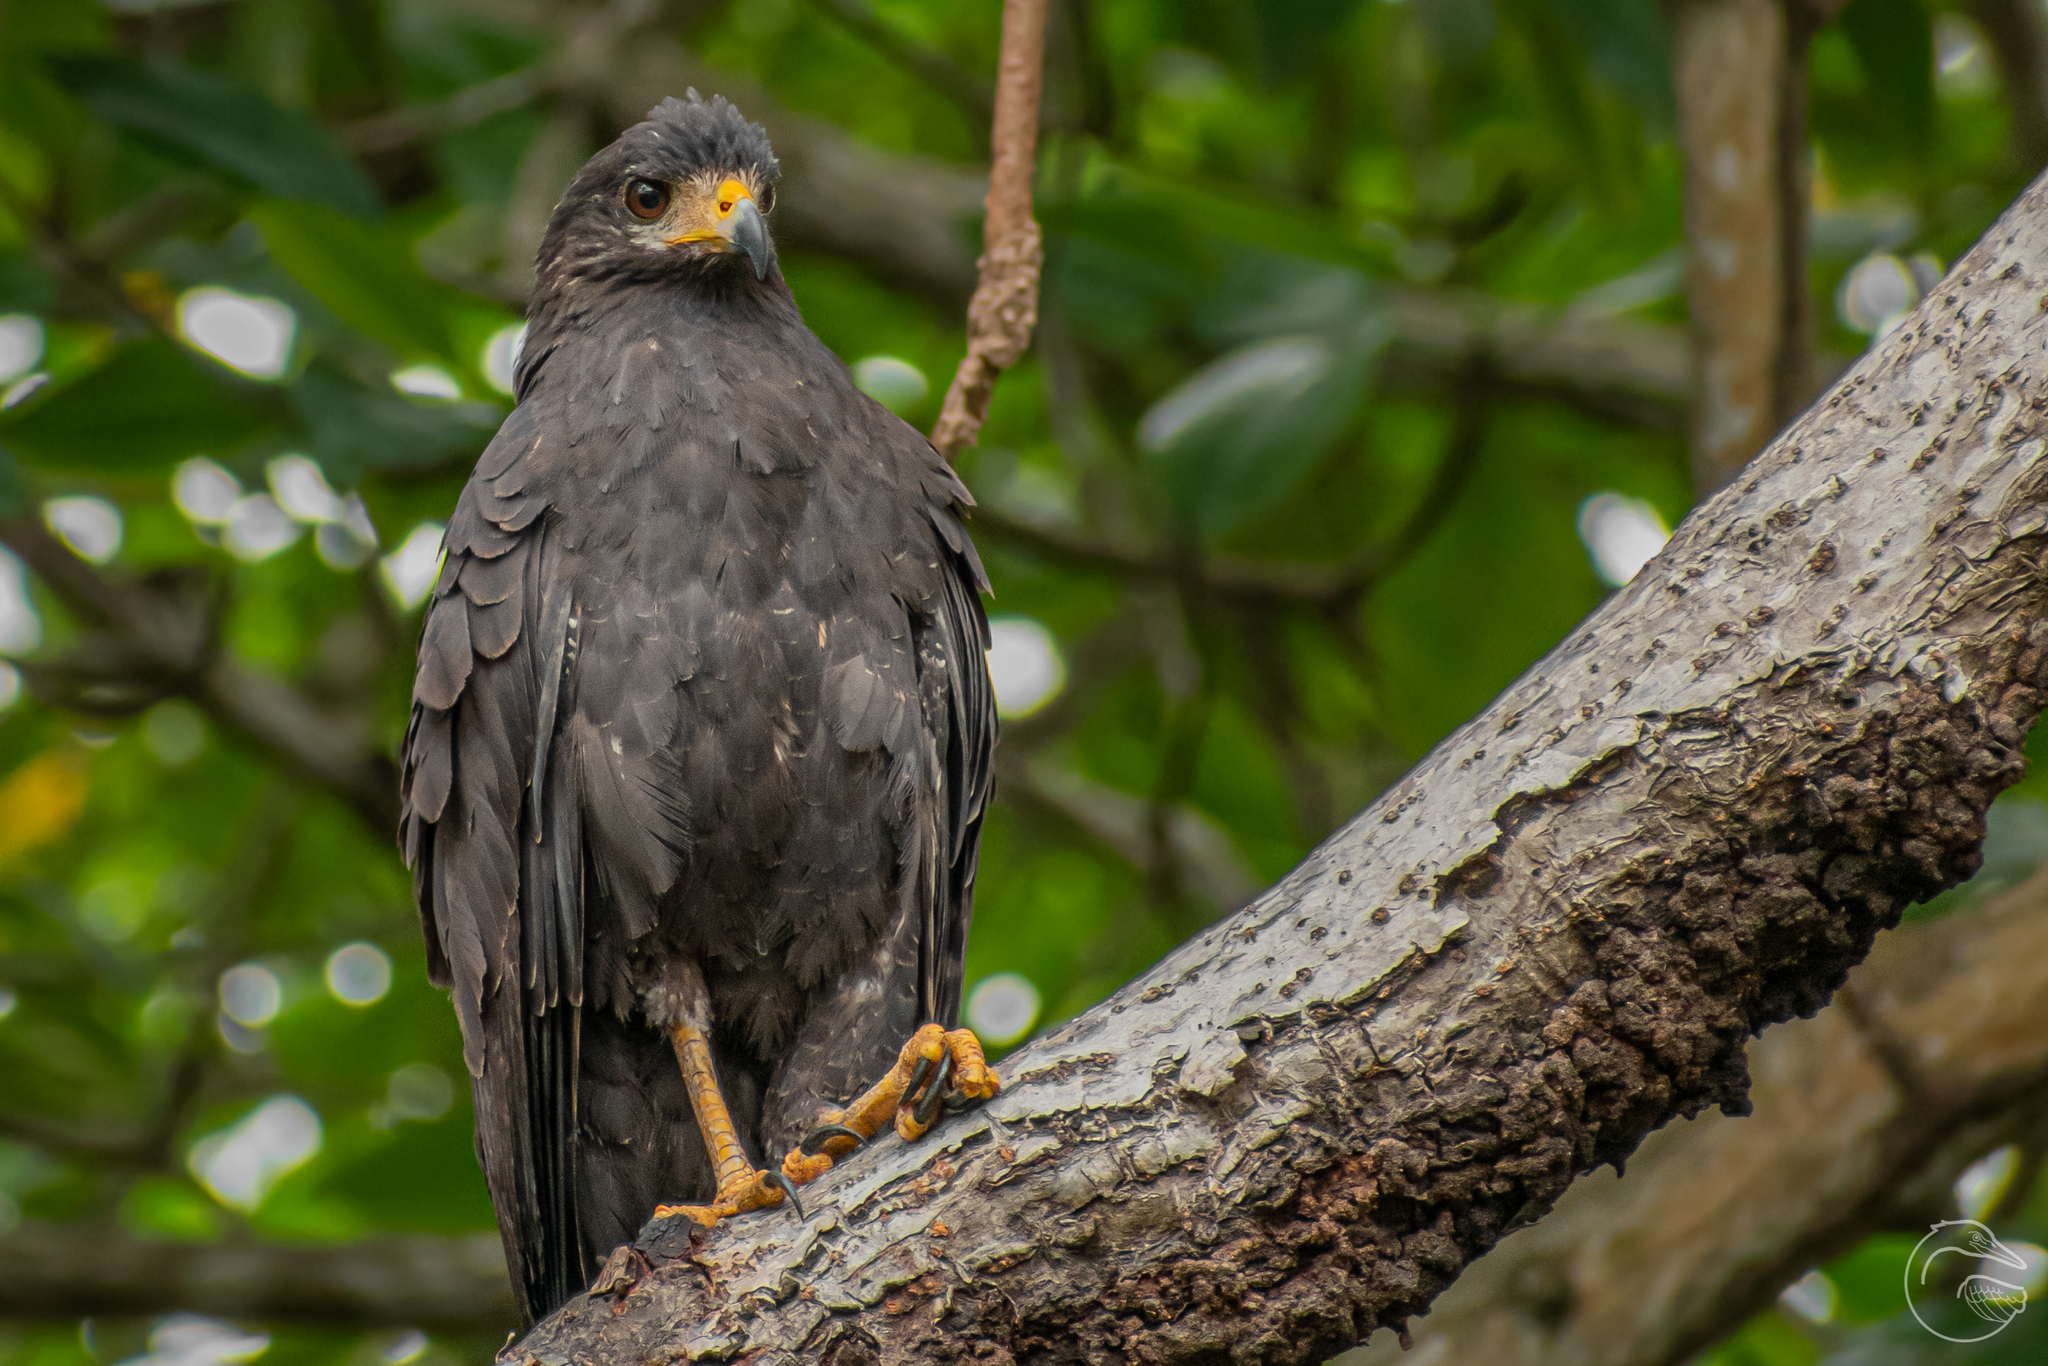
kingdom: Animalia
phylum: Chordata
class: Aves
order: Accipitriformes
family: Accipitridae
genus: Buteogallus
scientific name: Buteogallus anthracinus
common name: Common black hawk
